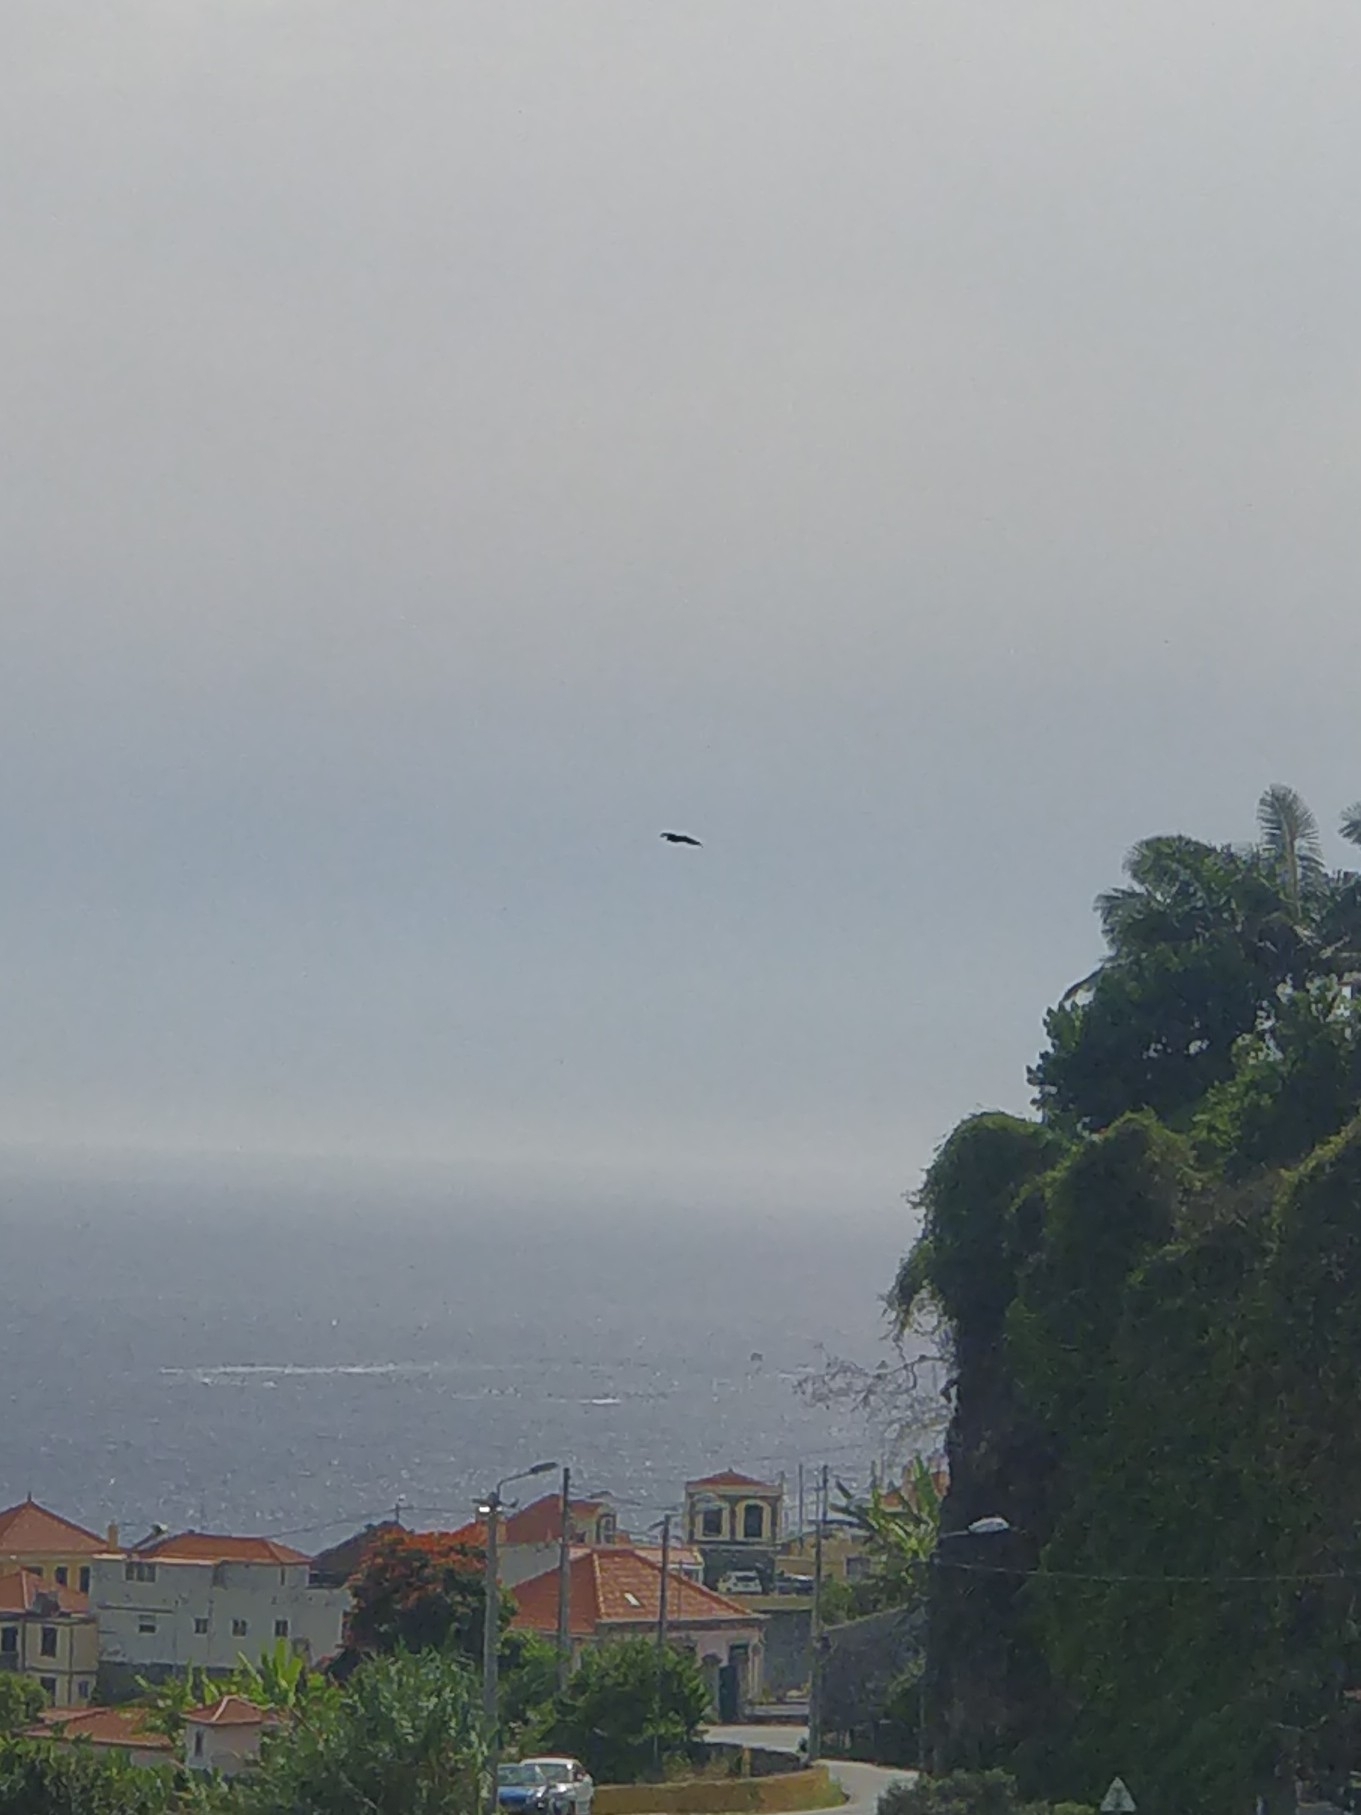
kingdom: Animalia
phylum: Chordata
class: Aves
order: Accipitriformes
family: Accipitridae
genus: Buteo
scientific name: Buteo buteo
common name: Common buzzard
